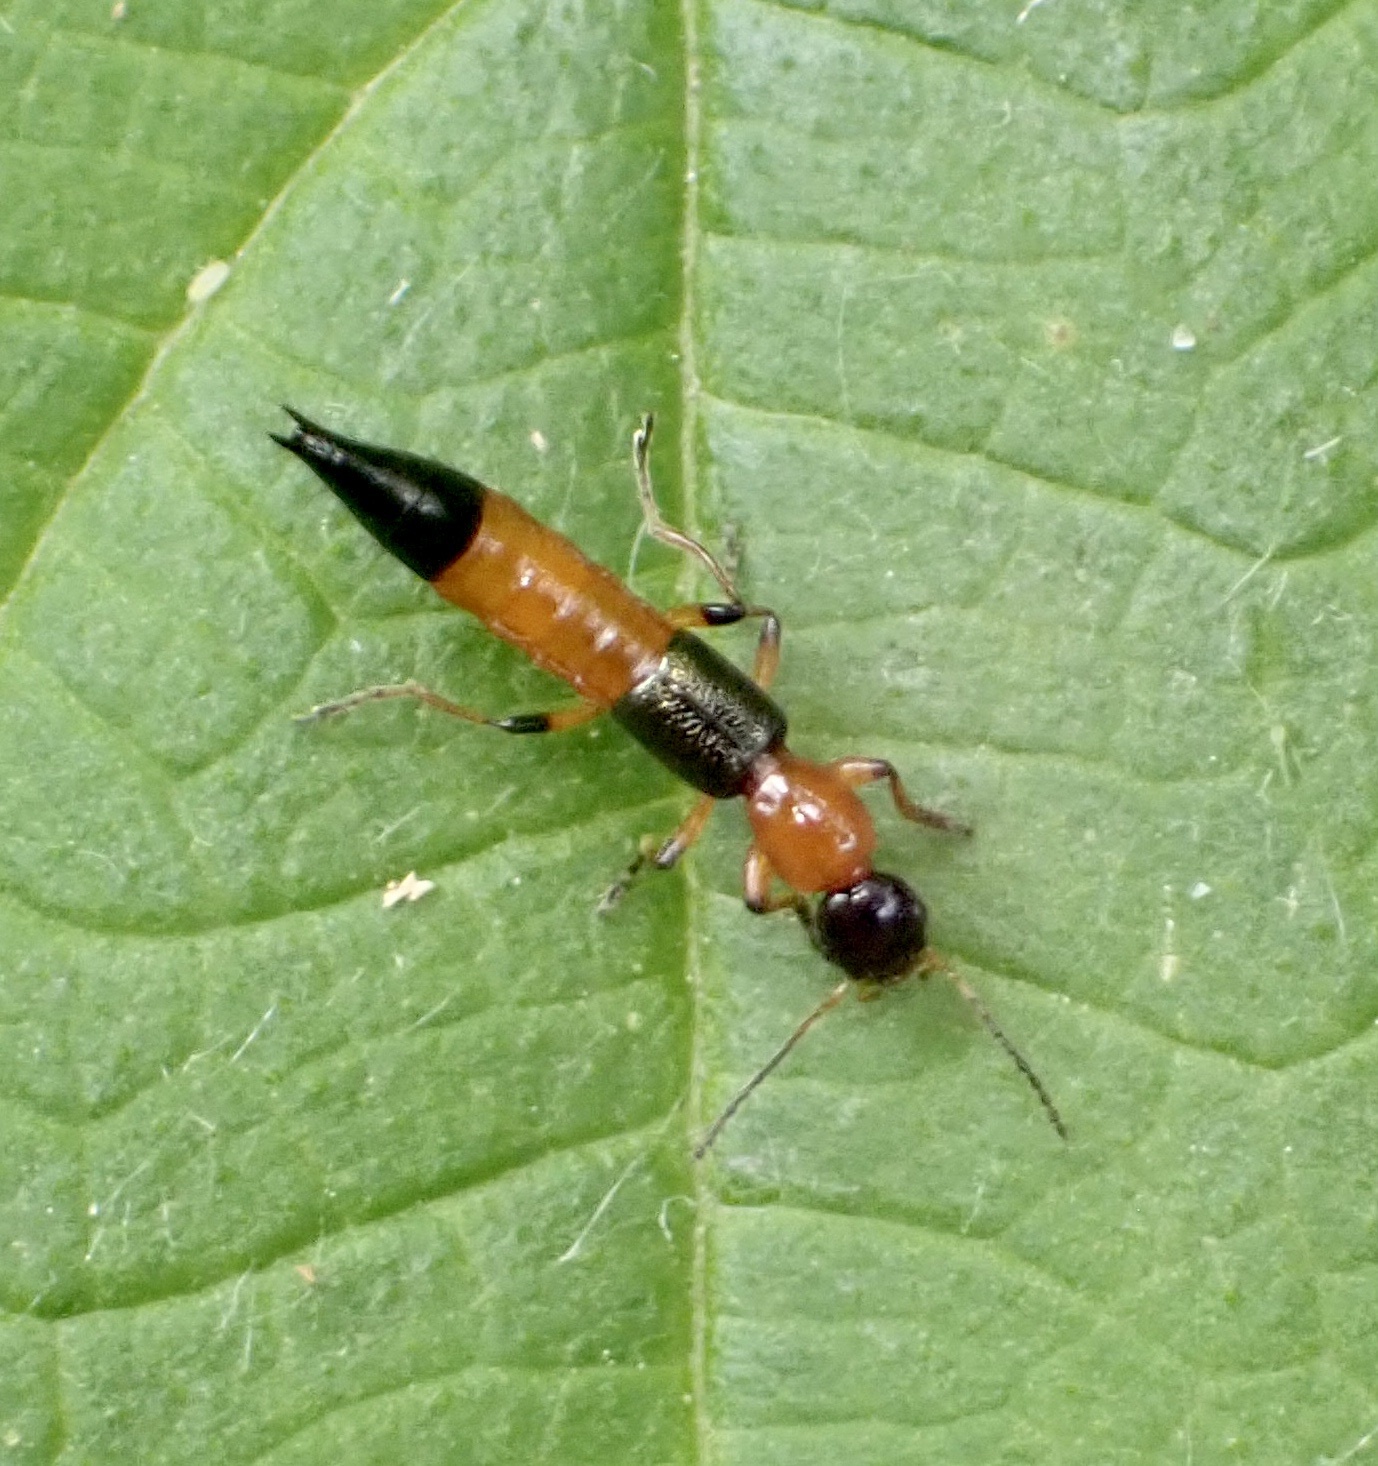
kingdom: Animalia
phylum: Arthropoda
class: Insecta
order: Coleoptera
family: Staphylinidae
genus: Paederus
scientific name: Paederus riparius
